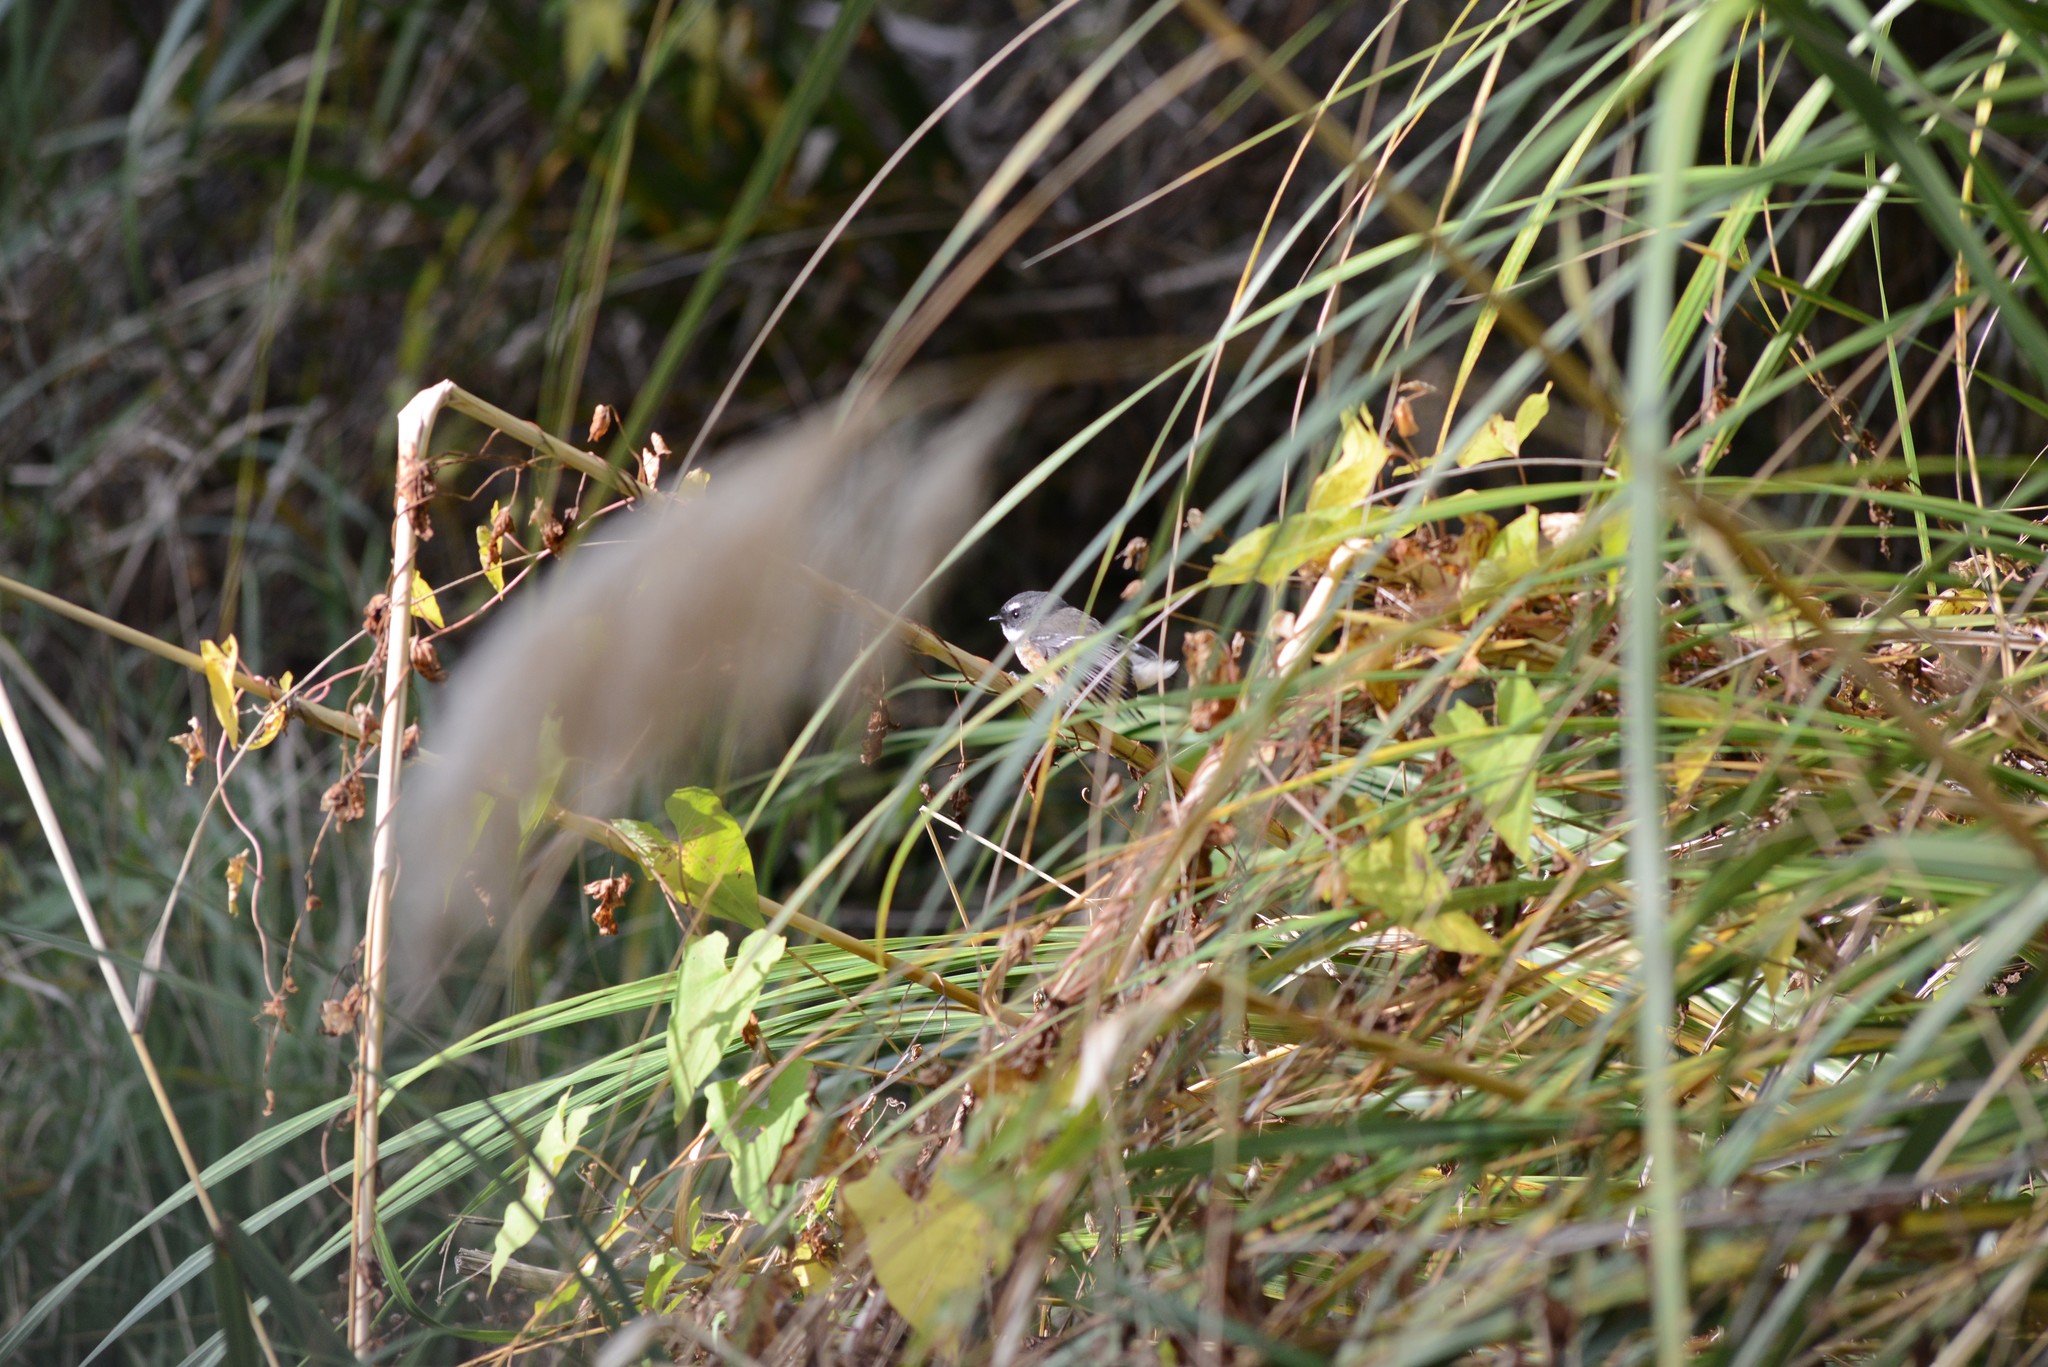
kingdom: Animalia
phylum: Chordata
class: Aves
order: Passeriformes
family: Rhipiduridae
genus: Rhipidura
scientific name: Rhipidura fuliginosa
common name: New zealand fantail
